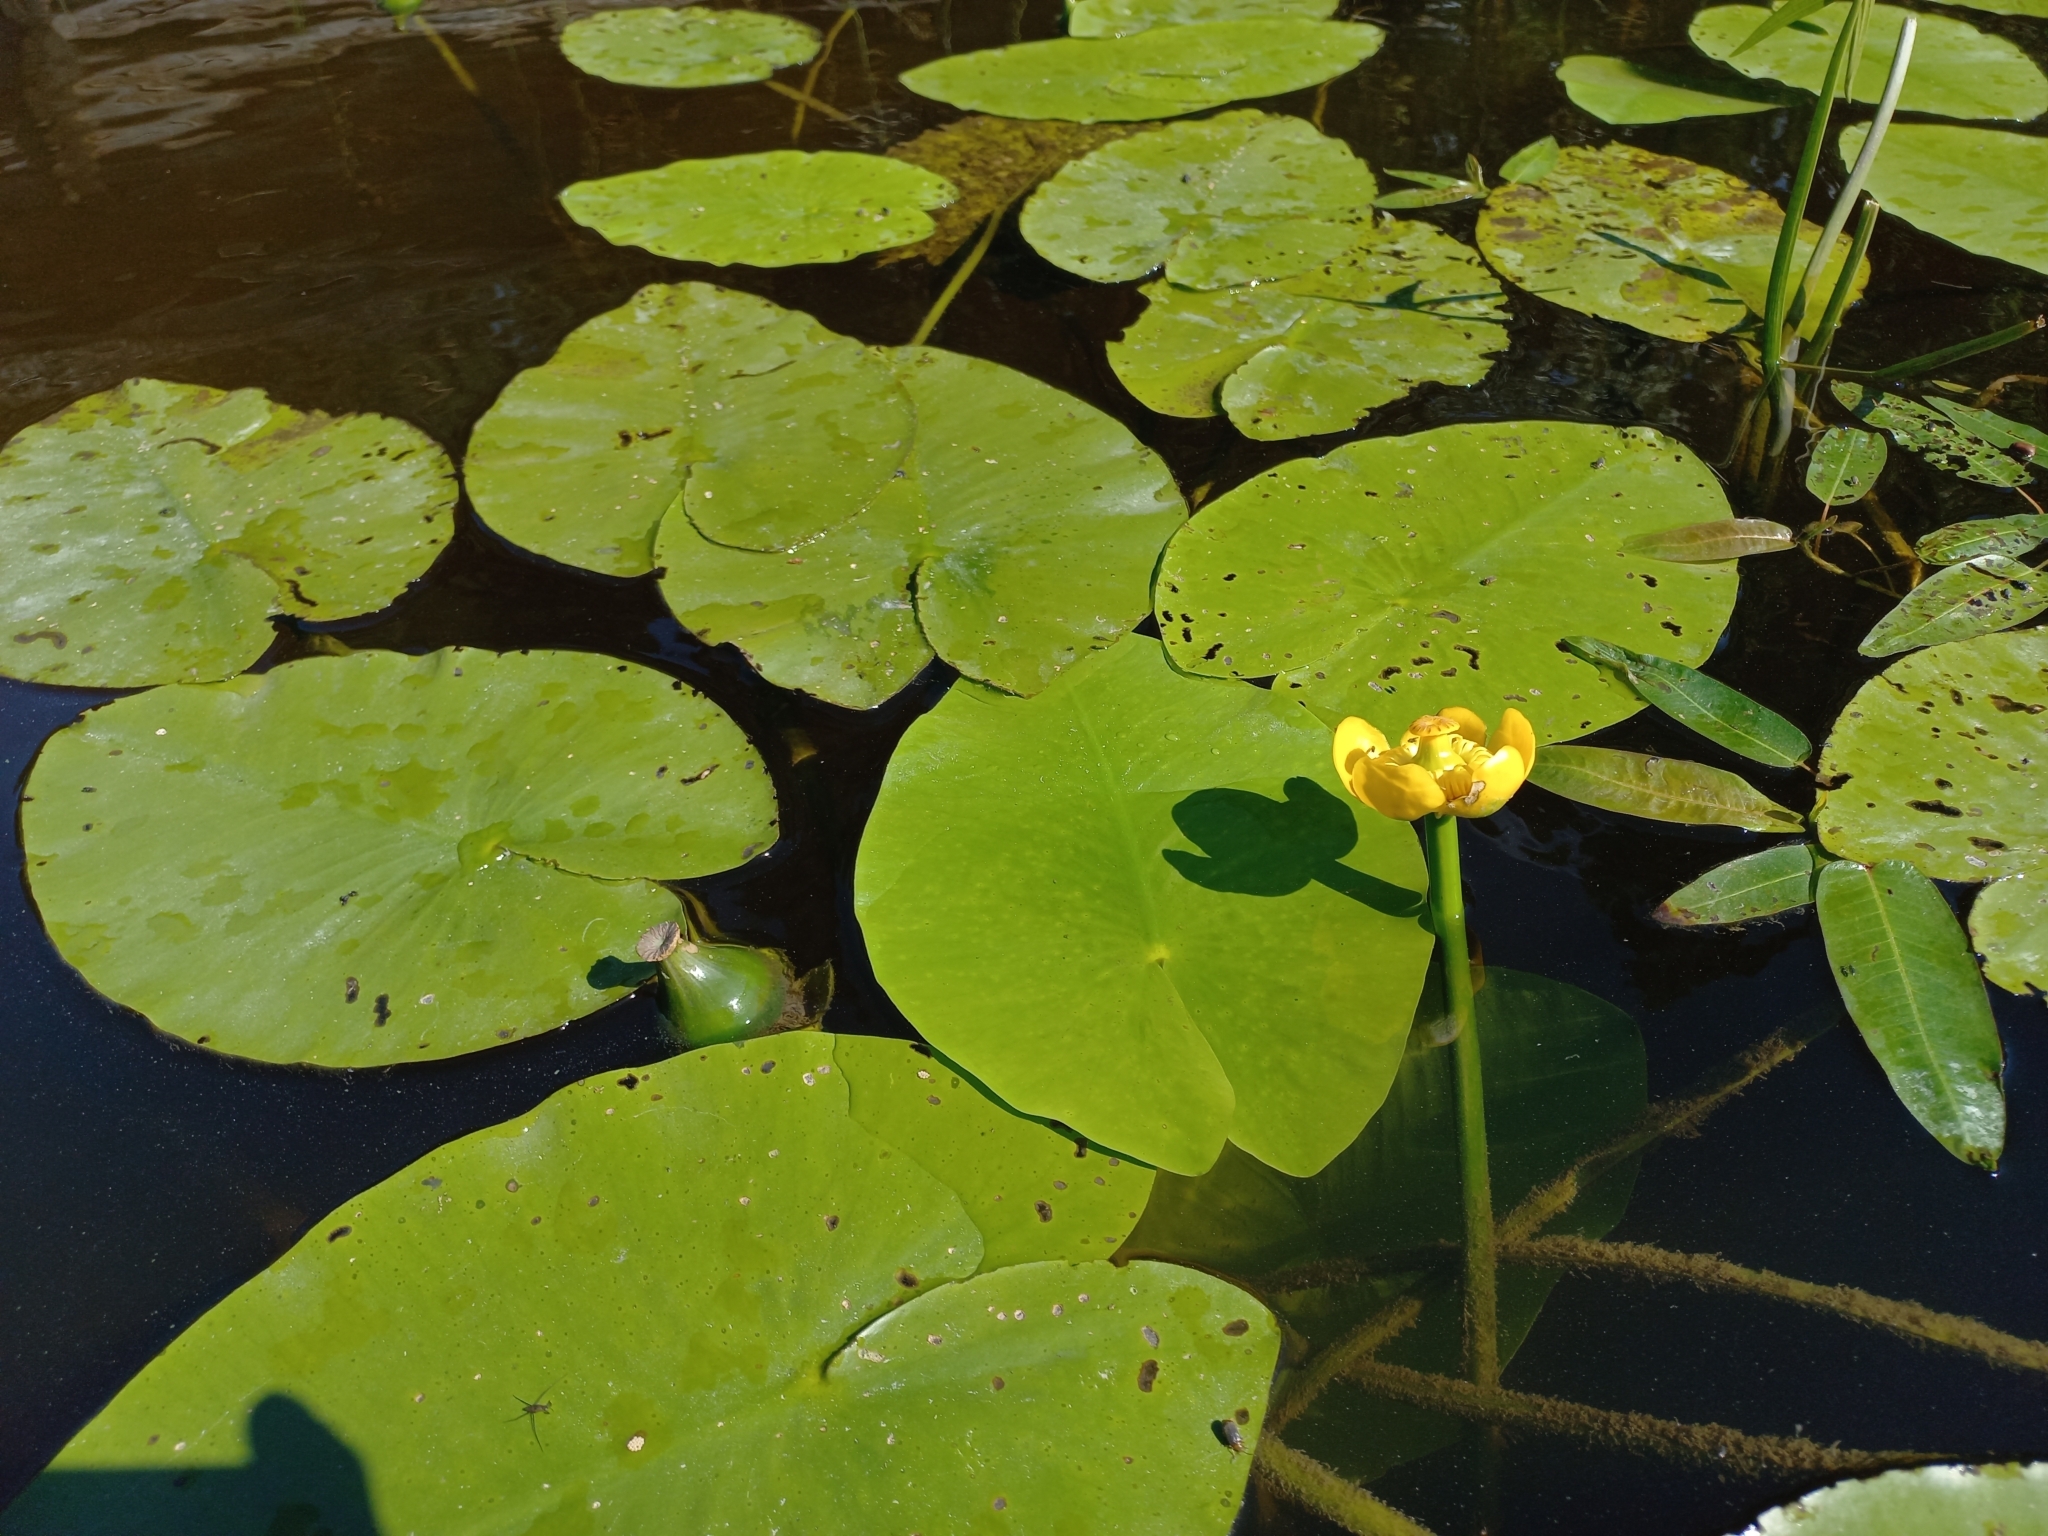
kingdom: Plantae
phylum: Tracheophyta
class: Magnoliopsida
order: Nymphaeales
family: Nymphaeaceae
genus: Nuphar
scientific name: Nuphar lutea
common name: Yellow water-lily
